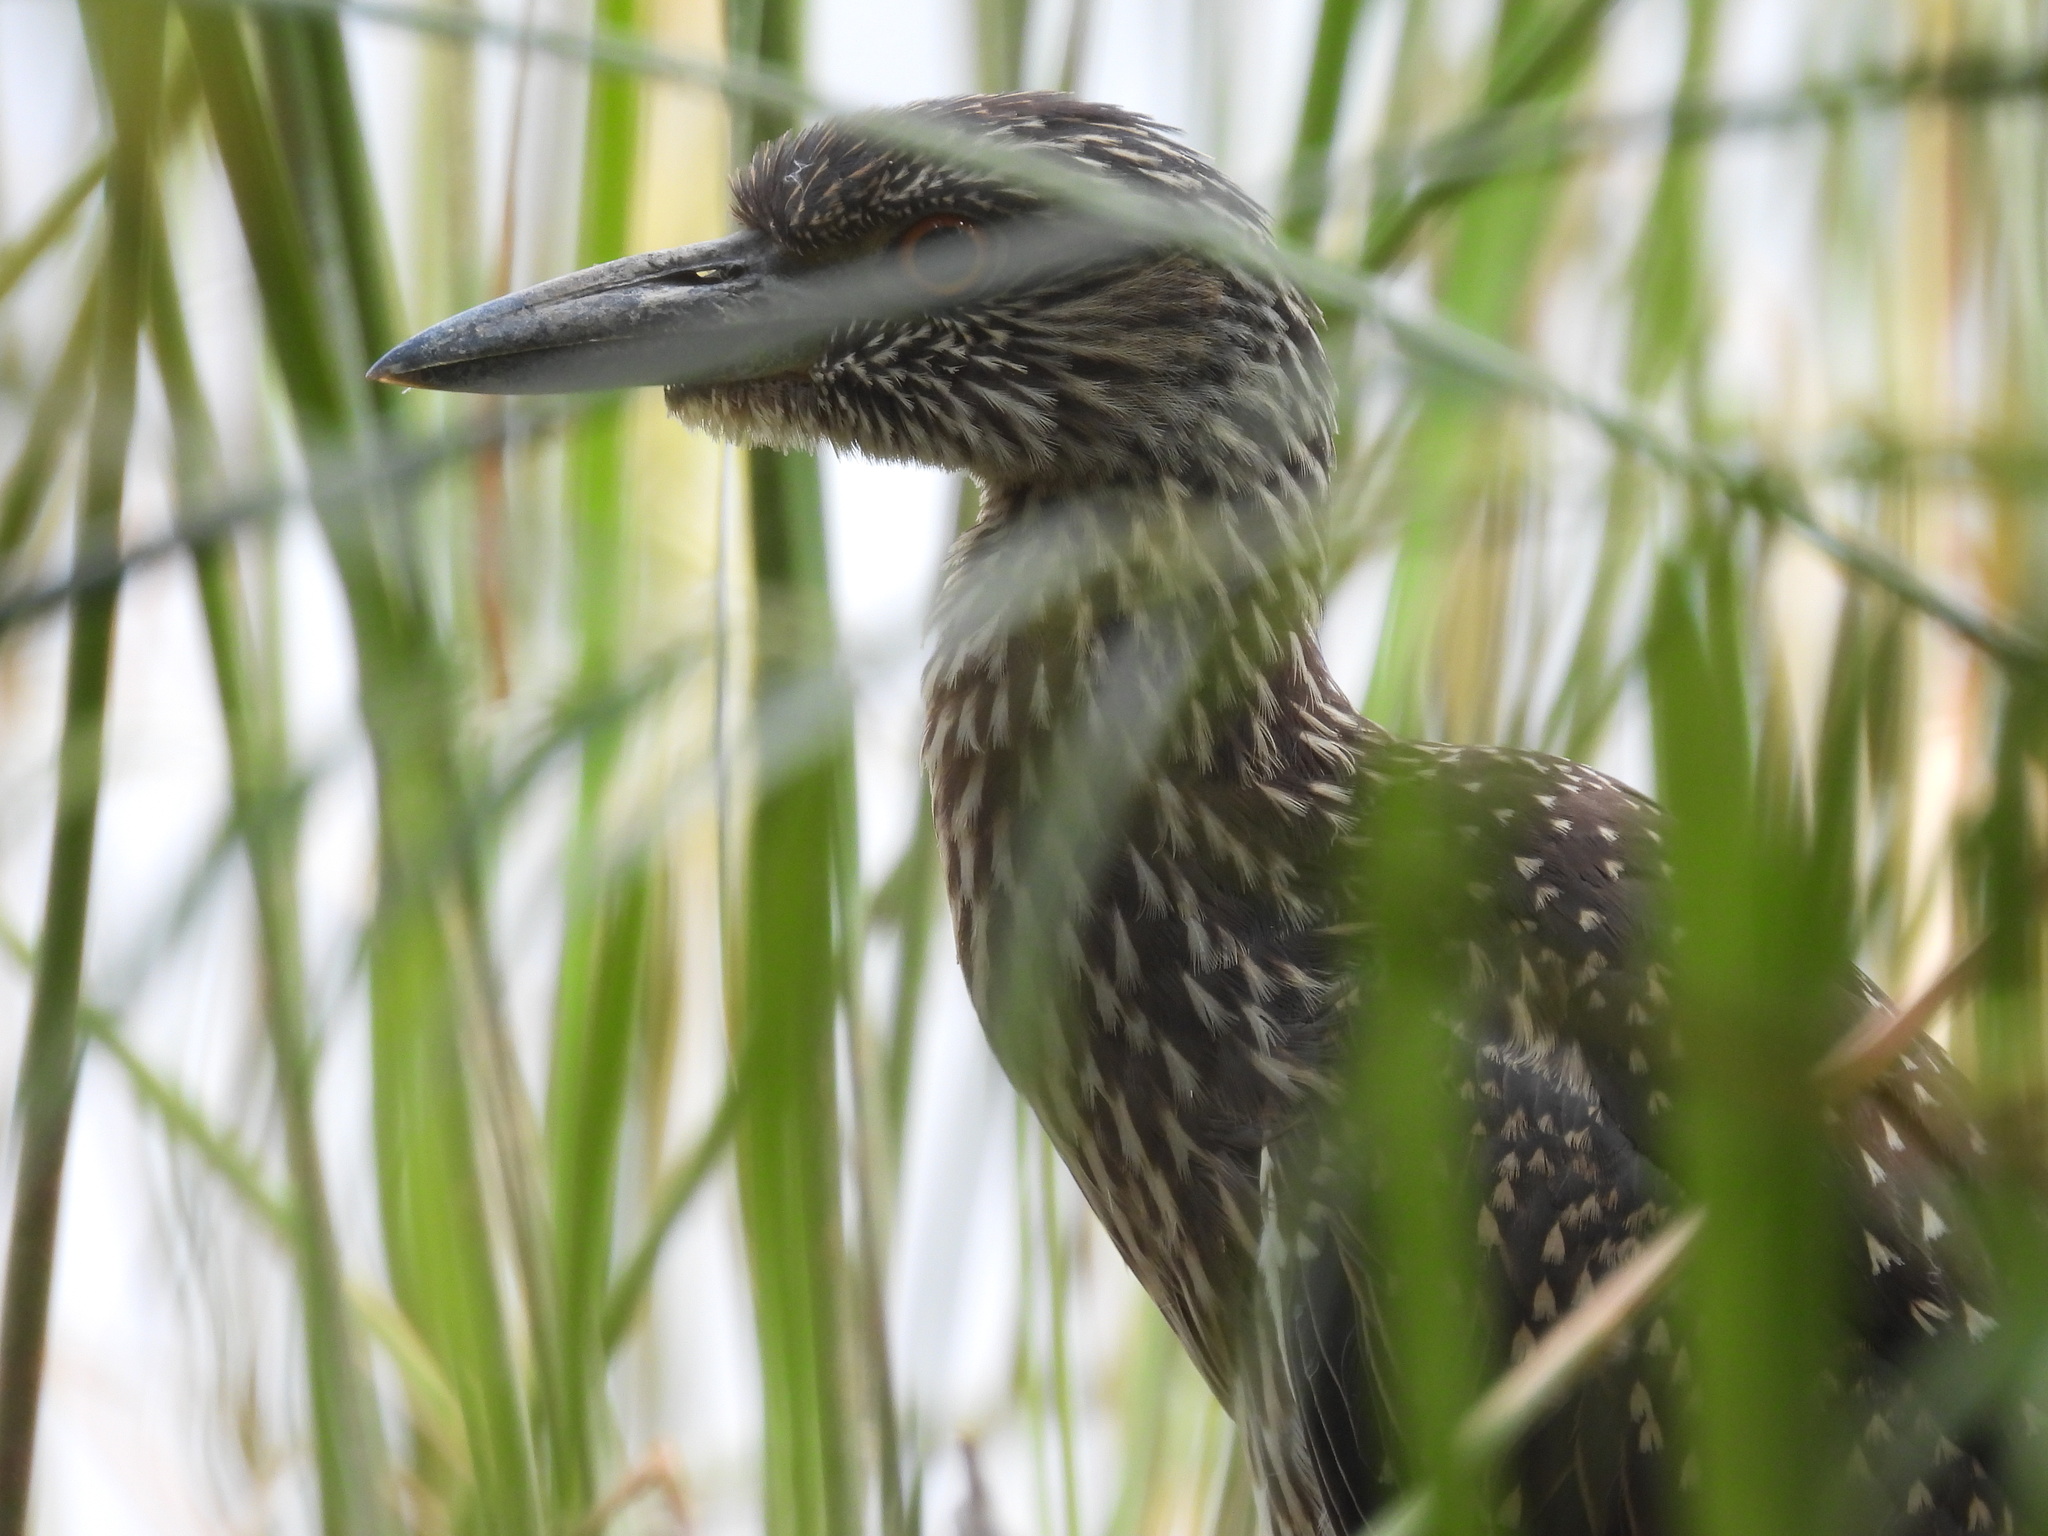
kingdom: Animalia
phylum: Chordata
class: Aves
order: Pelecaniformes
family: Ardeidae
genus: Nyctanassa
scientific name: Nyctanassa violacea
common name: Yellow-crowned night heron
